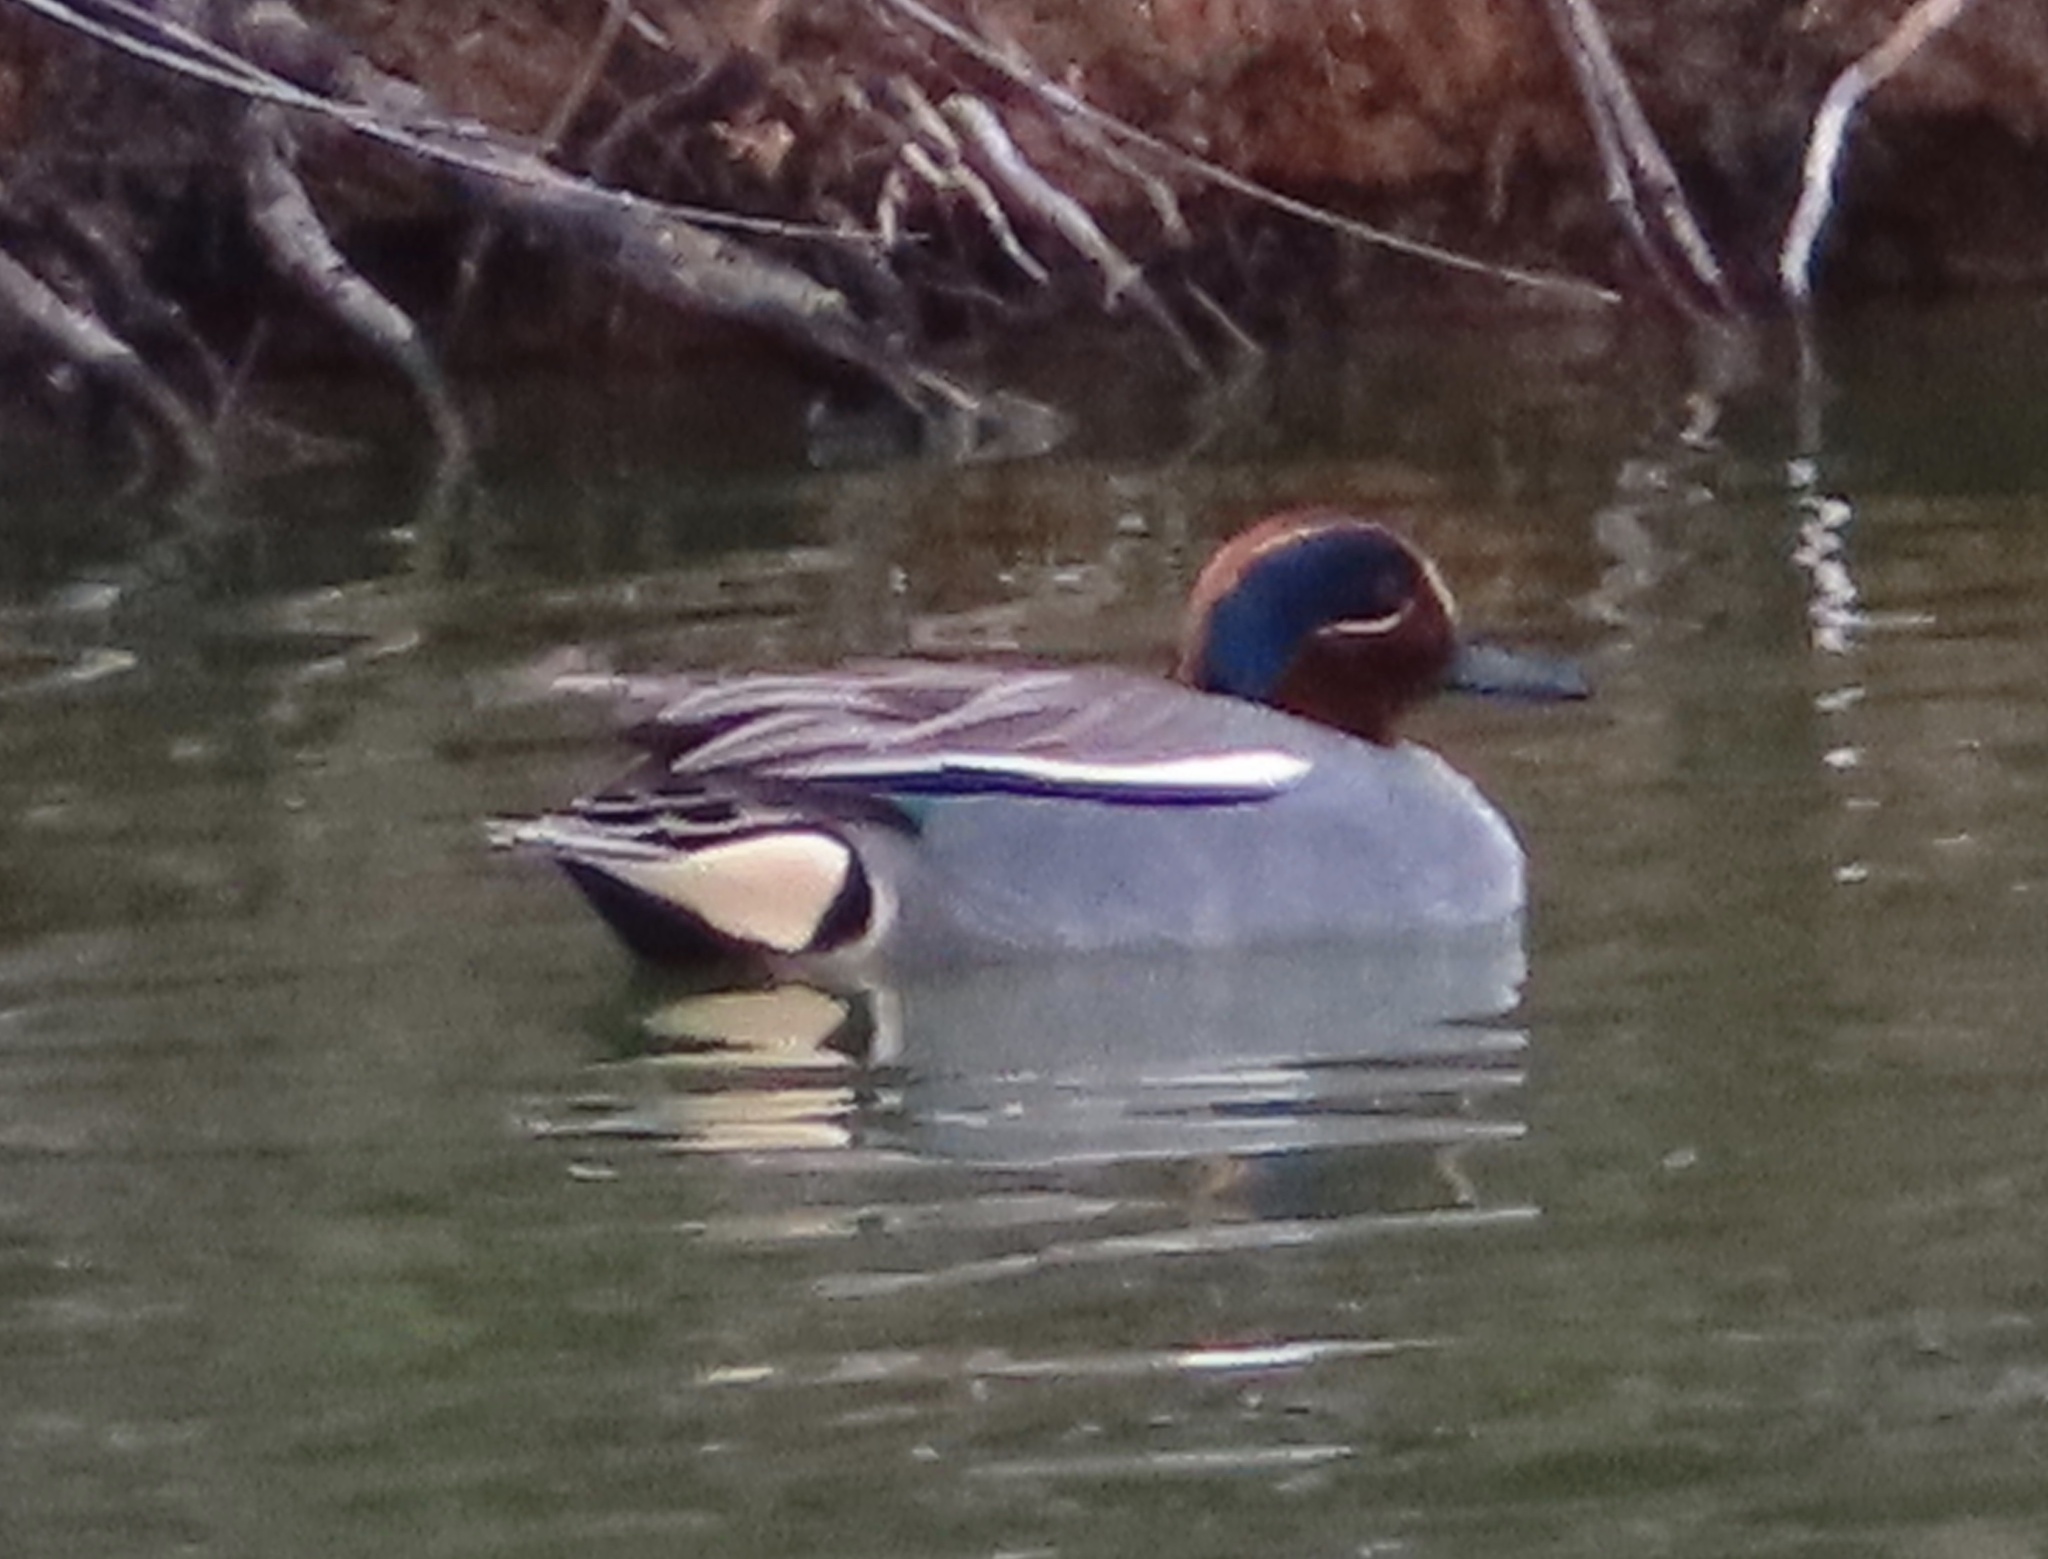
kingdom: Animalia
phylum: Chordata
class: Aves
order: Anseriformes
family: Anatidae
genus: Anas
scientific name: Anas crecca
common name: Eurasian teal
